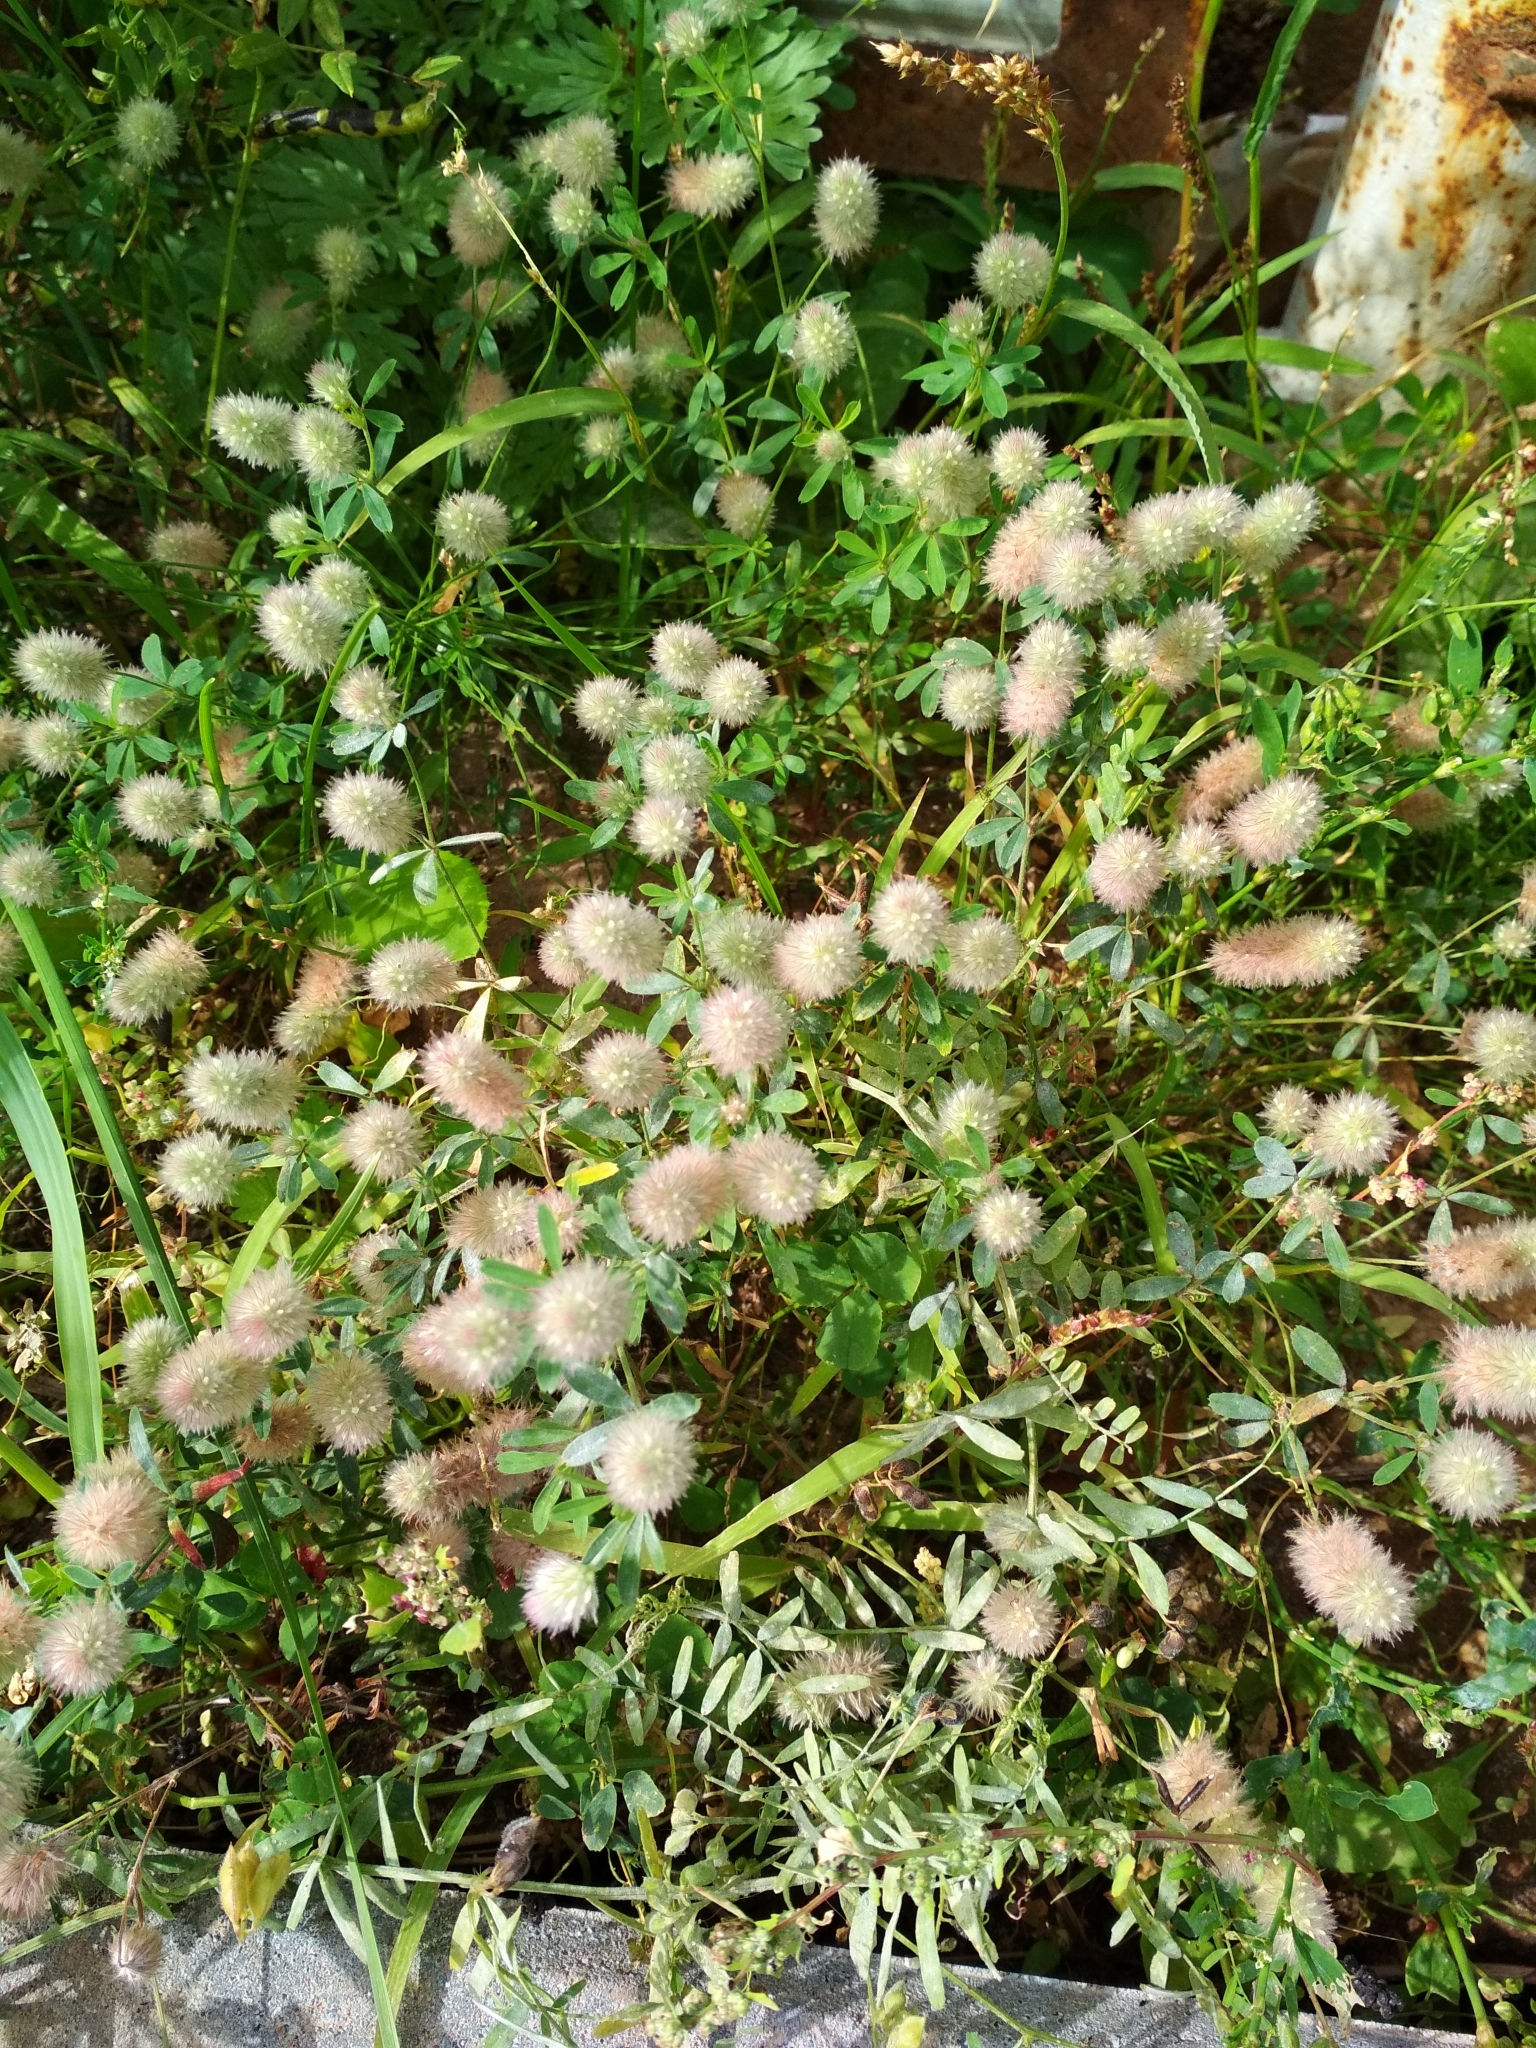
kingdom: Plantae
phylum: Tracheophyta
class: Magnoliopsida
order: Fabales
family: Fabaceae
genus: Trifolium
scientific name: Trifolium arvense
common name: Hare's-foot clover
